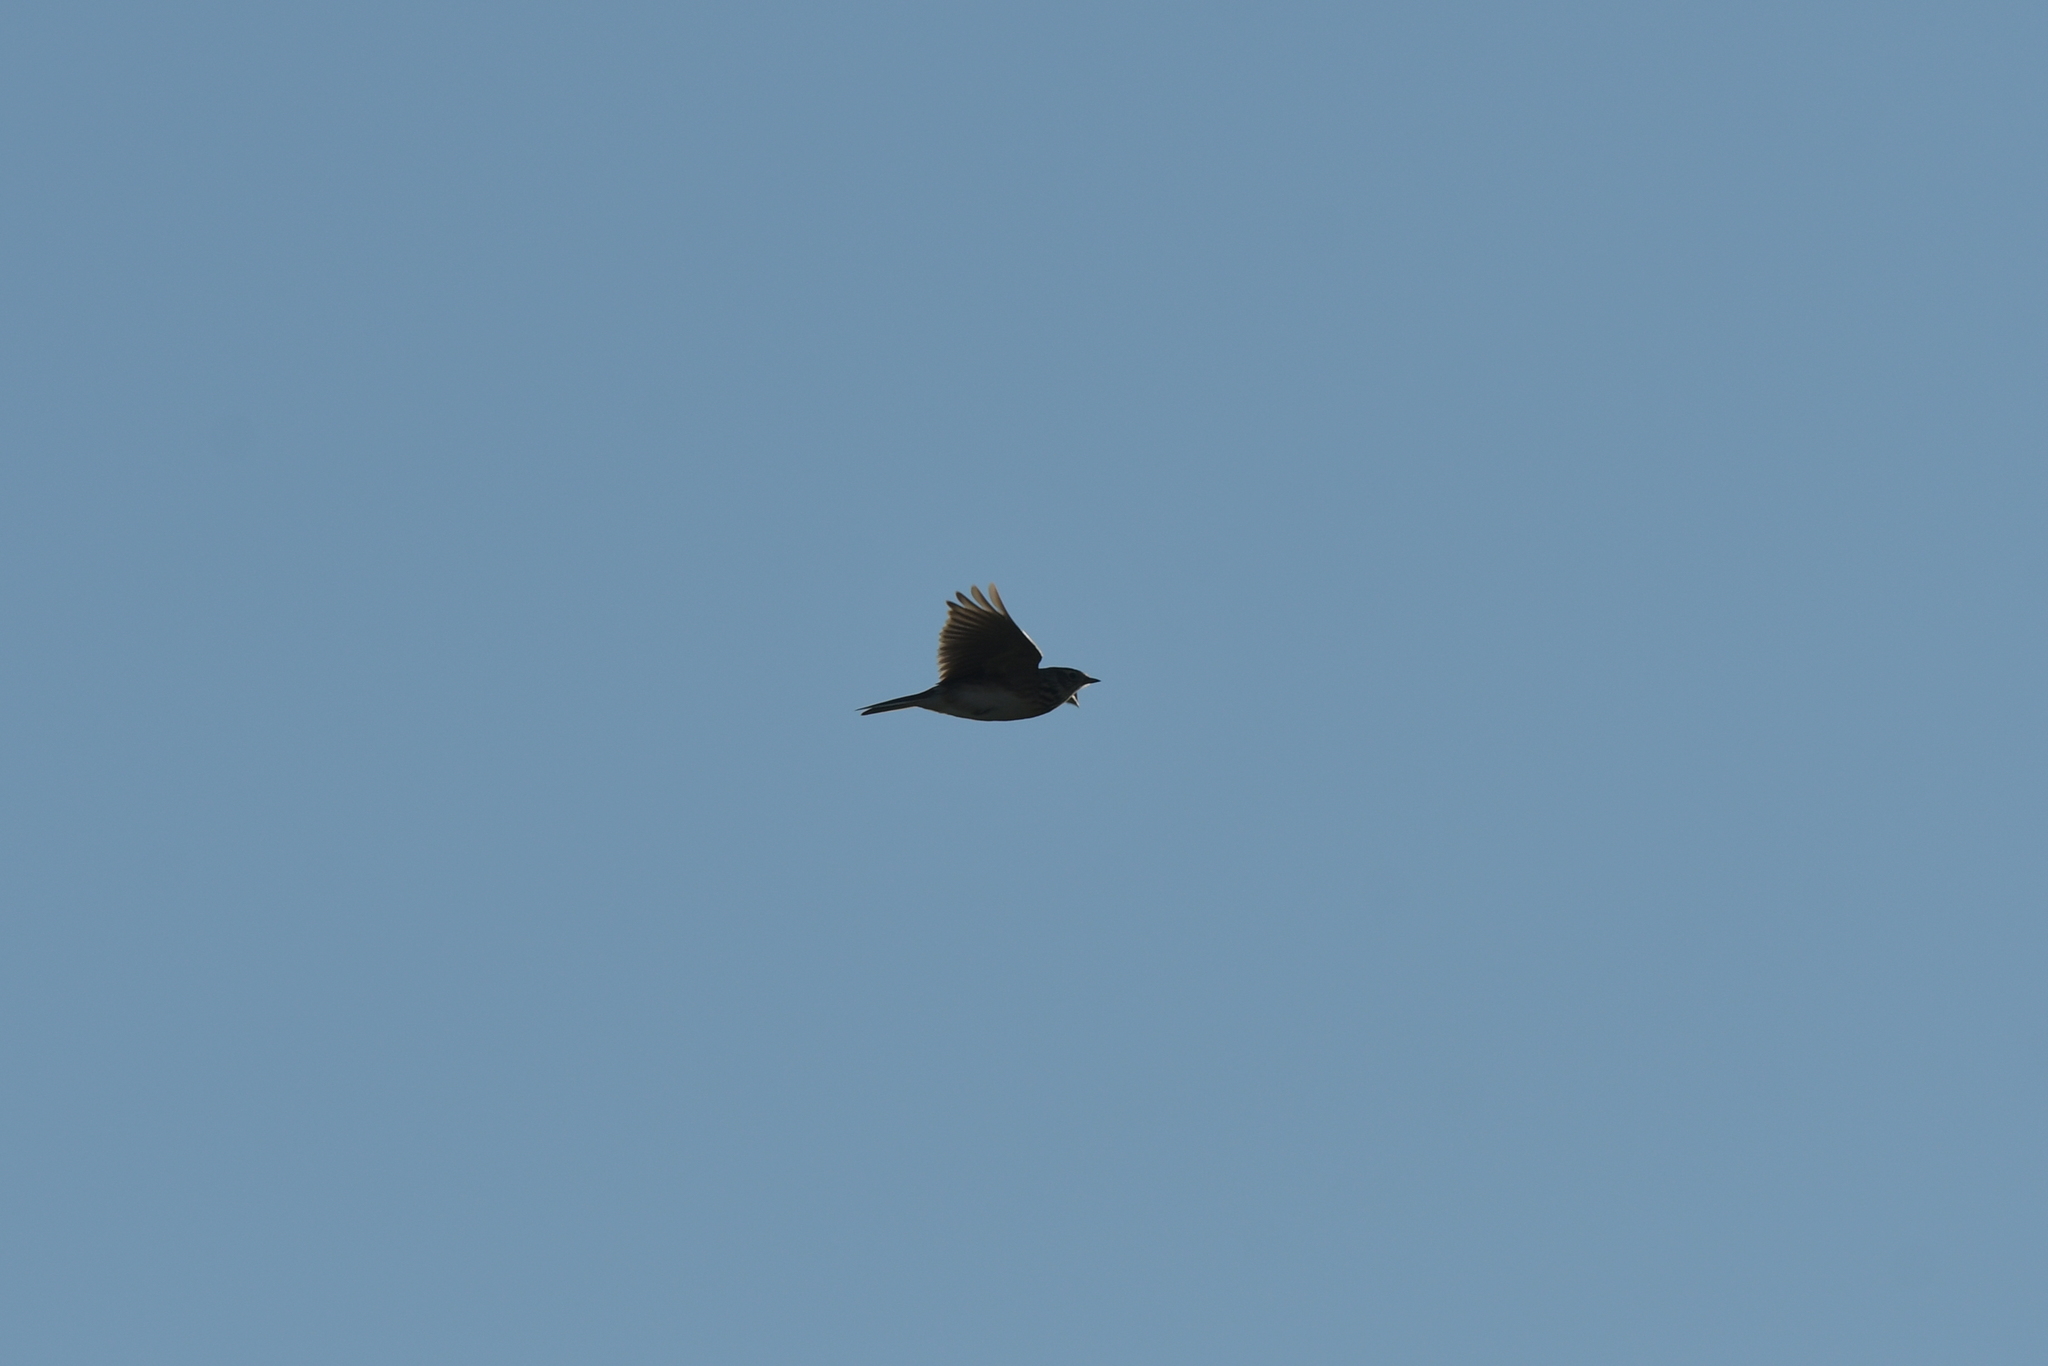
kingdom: Animalia
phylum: Chordata
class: Aves
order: Passeriformes
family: Alaudidae
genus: Alauda
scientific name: Alauda arvensis
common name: Eurasian skylark
